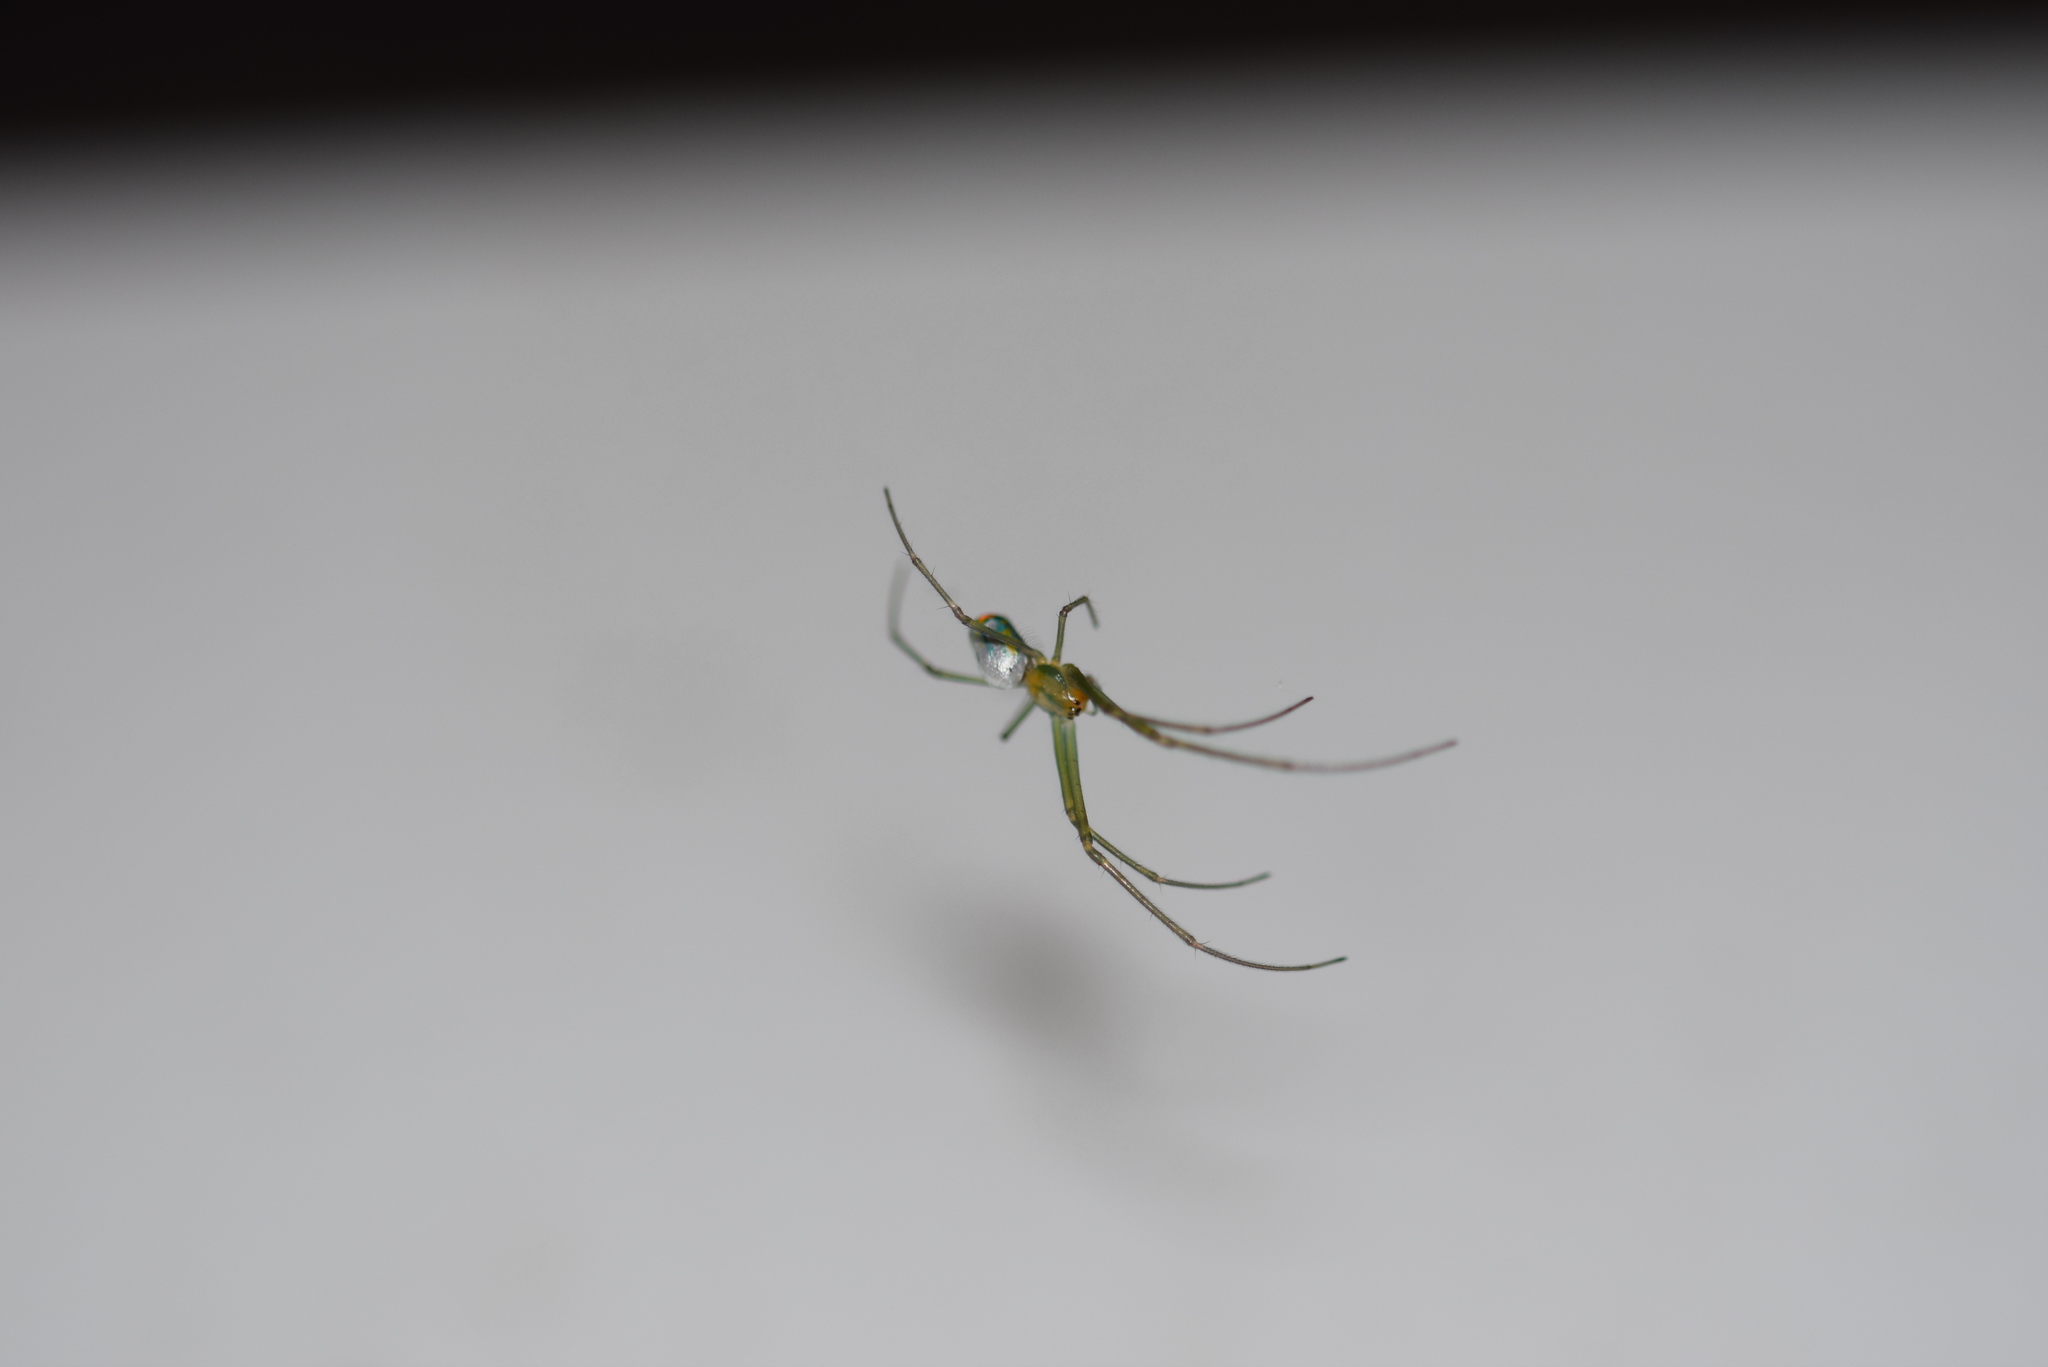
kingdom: Animalia
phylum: Arthropoda
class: Arachnida
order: Araneae
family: Tetragnathidae
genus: Leucauge
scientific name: Leucauge argyrobapta
